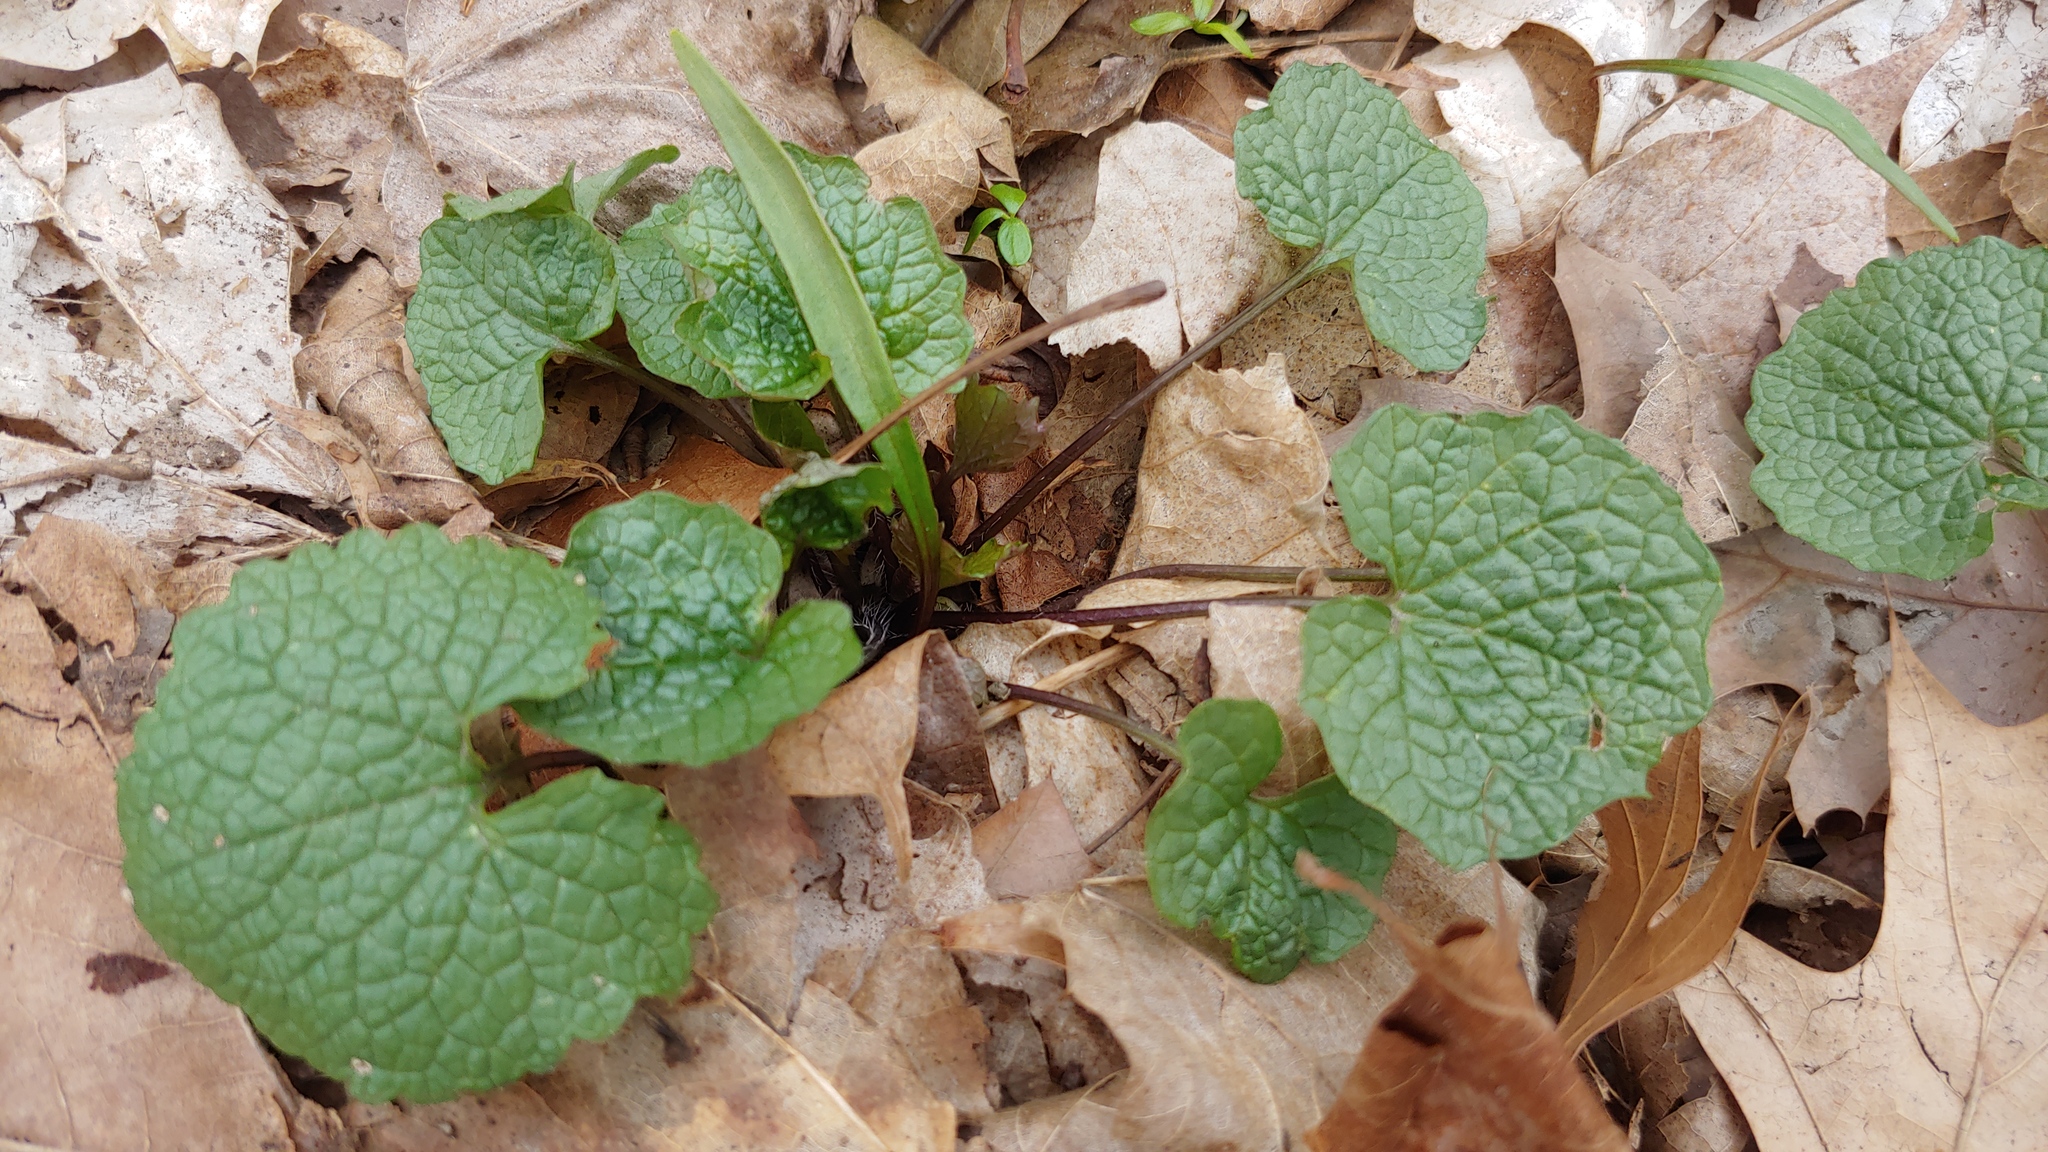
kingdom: Plantae
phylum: Tracheophyta
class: Magnoliopsida
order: Brassicales
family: Brassicaceae
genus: Alliaria
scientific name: Alliaria petiolata
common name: Garlic mustard
